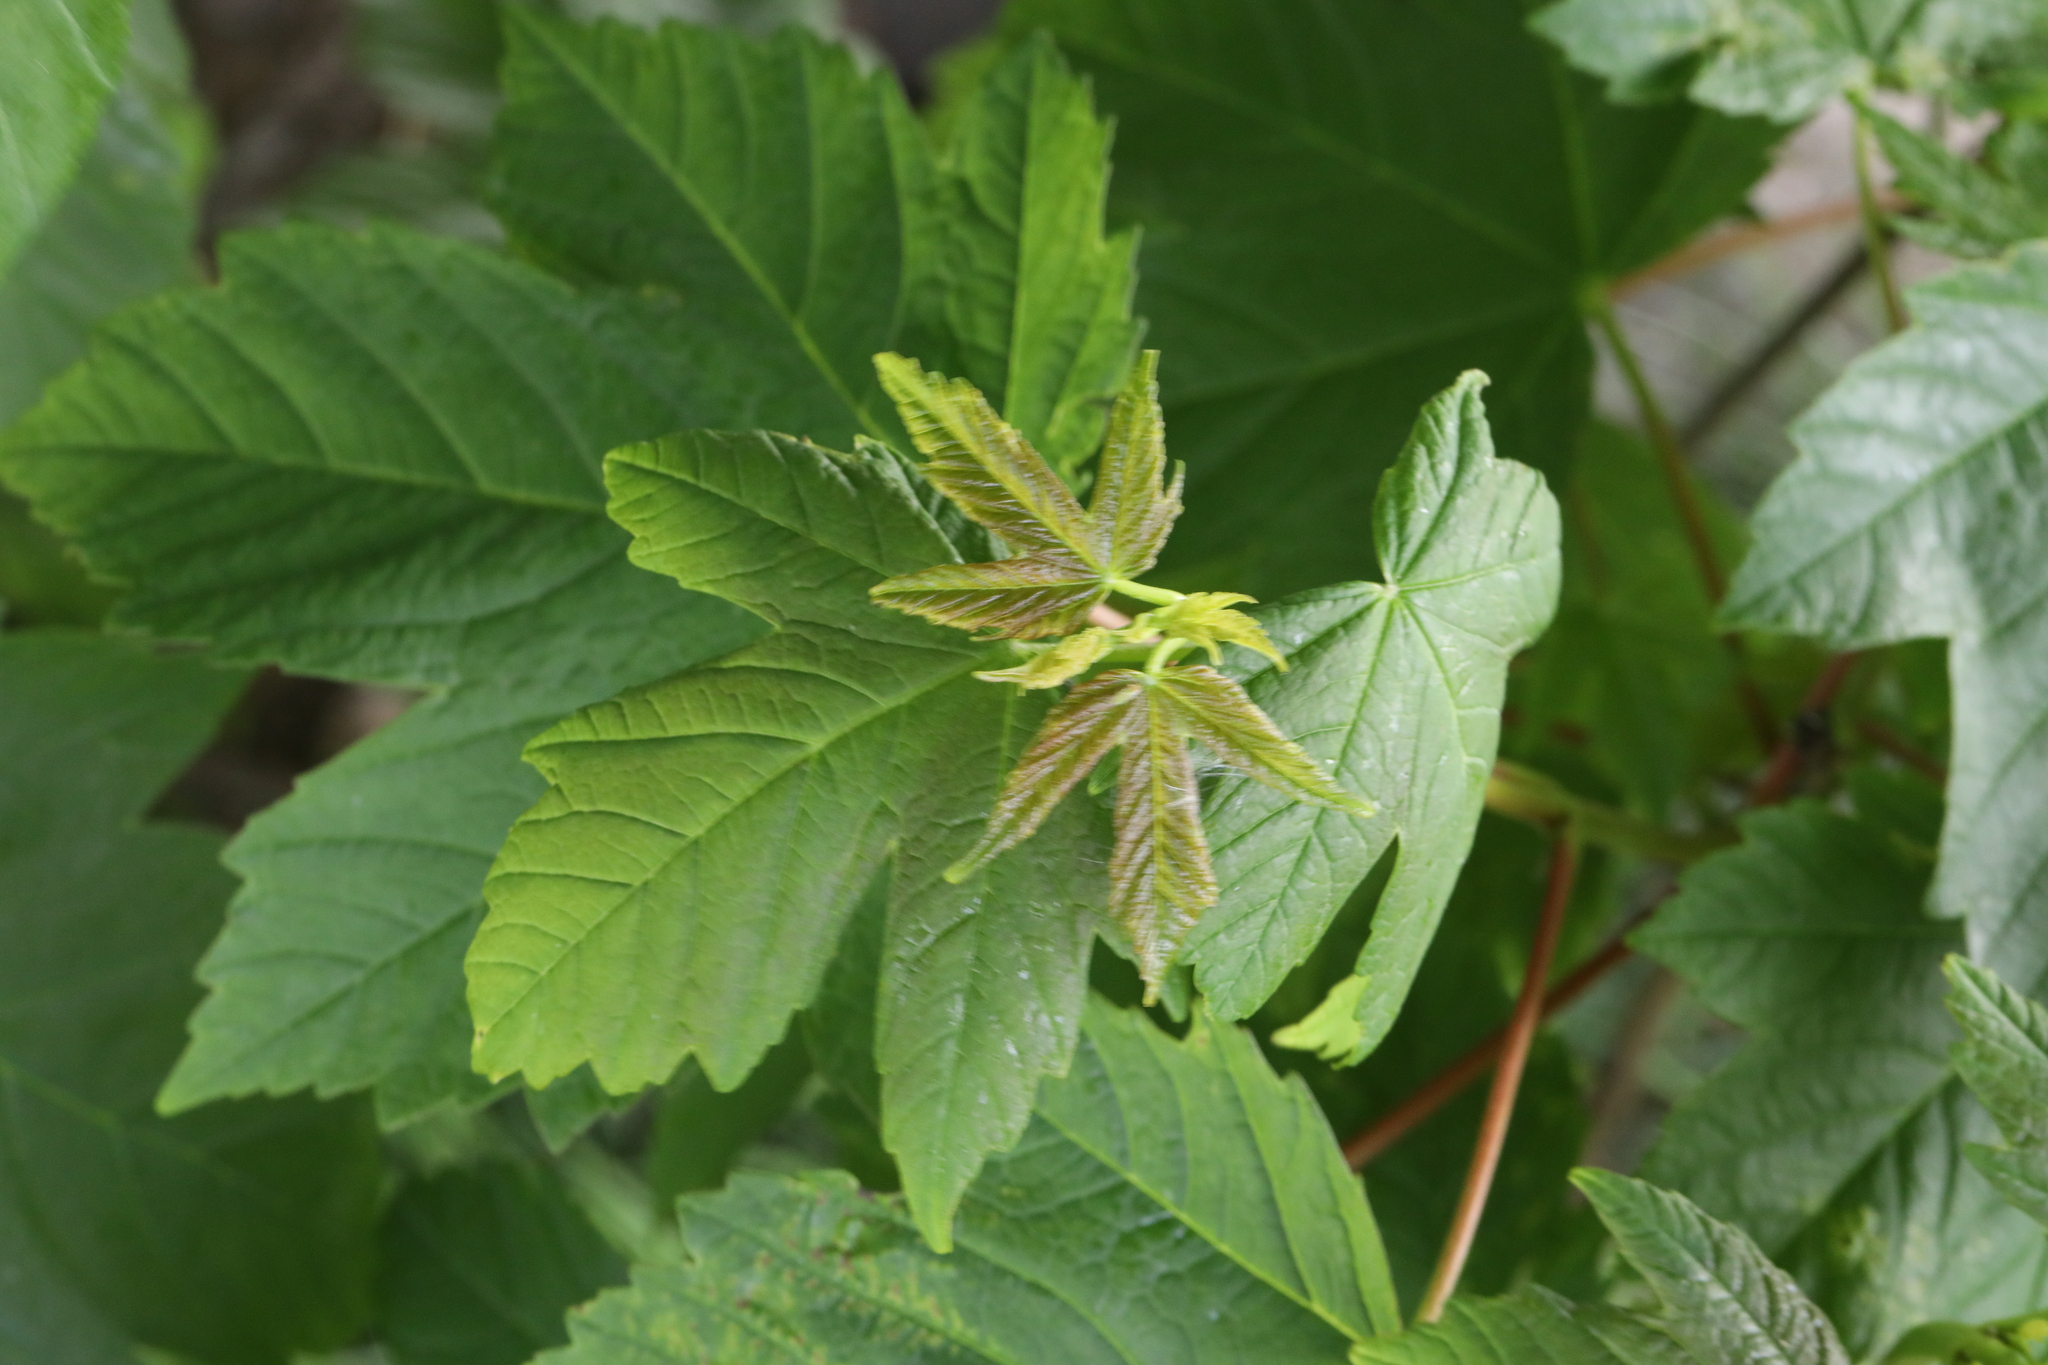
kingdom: Plantae
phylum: Tracheophyta
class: Magnoliopsida
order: Sapindales
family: Sapindaceae
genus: Acer
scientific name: Acer pseudoplatanus
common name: Sycamore
